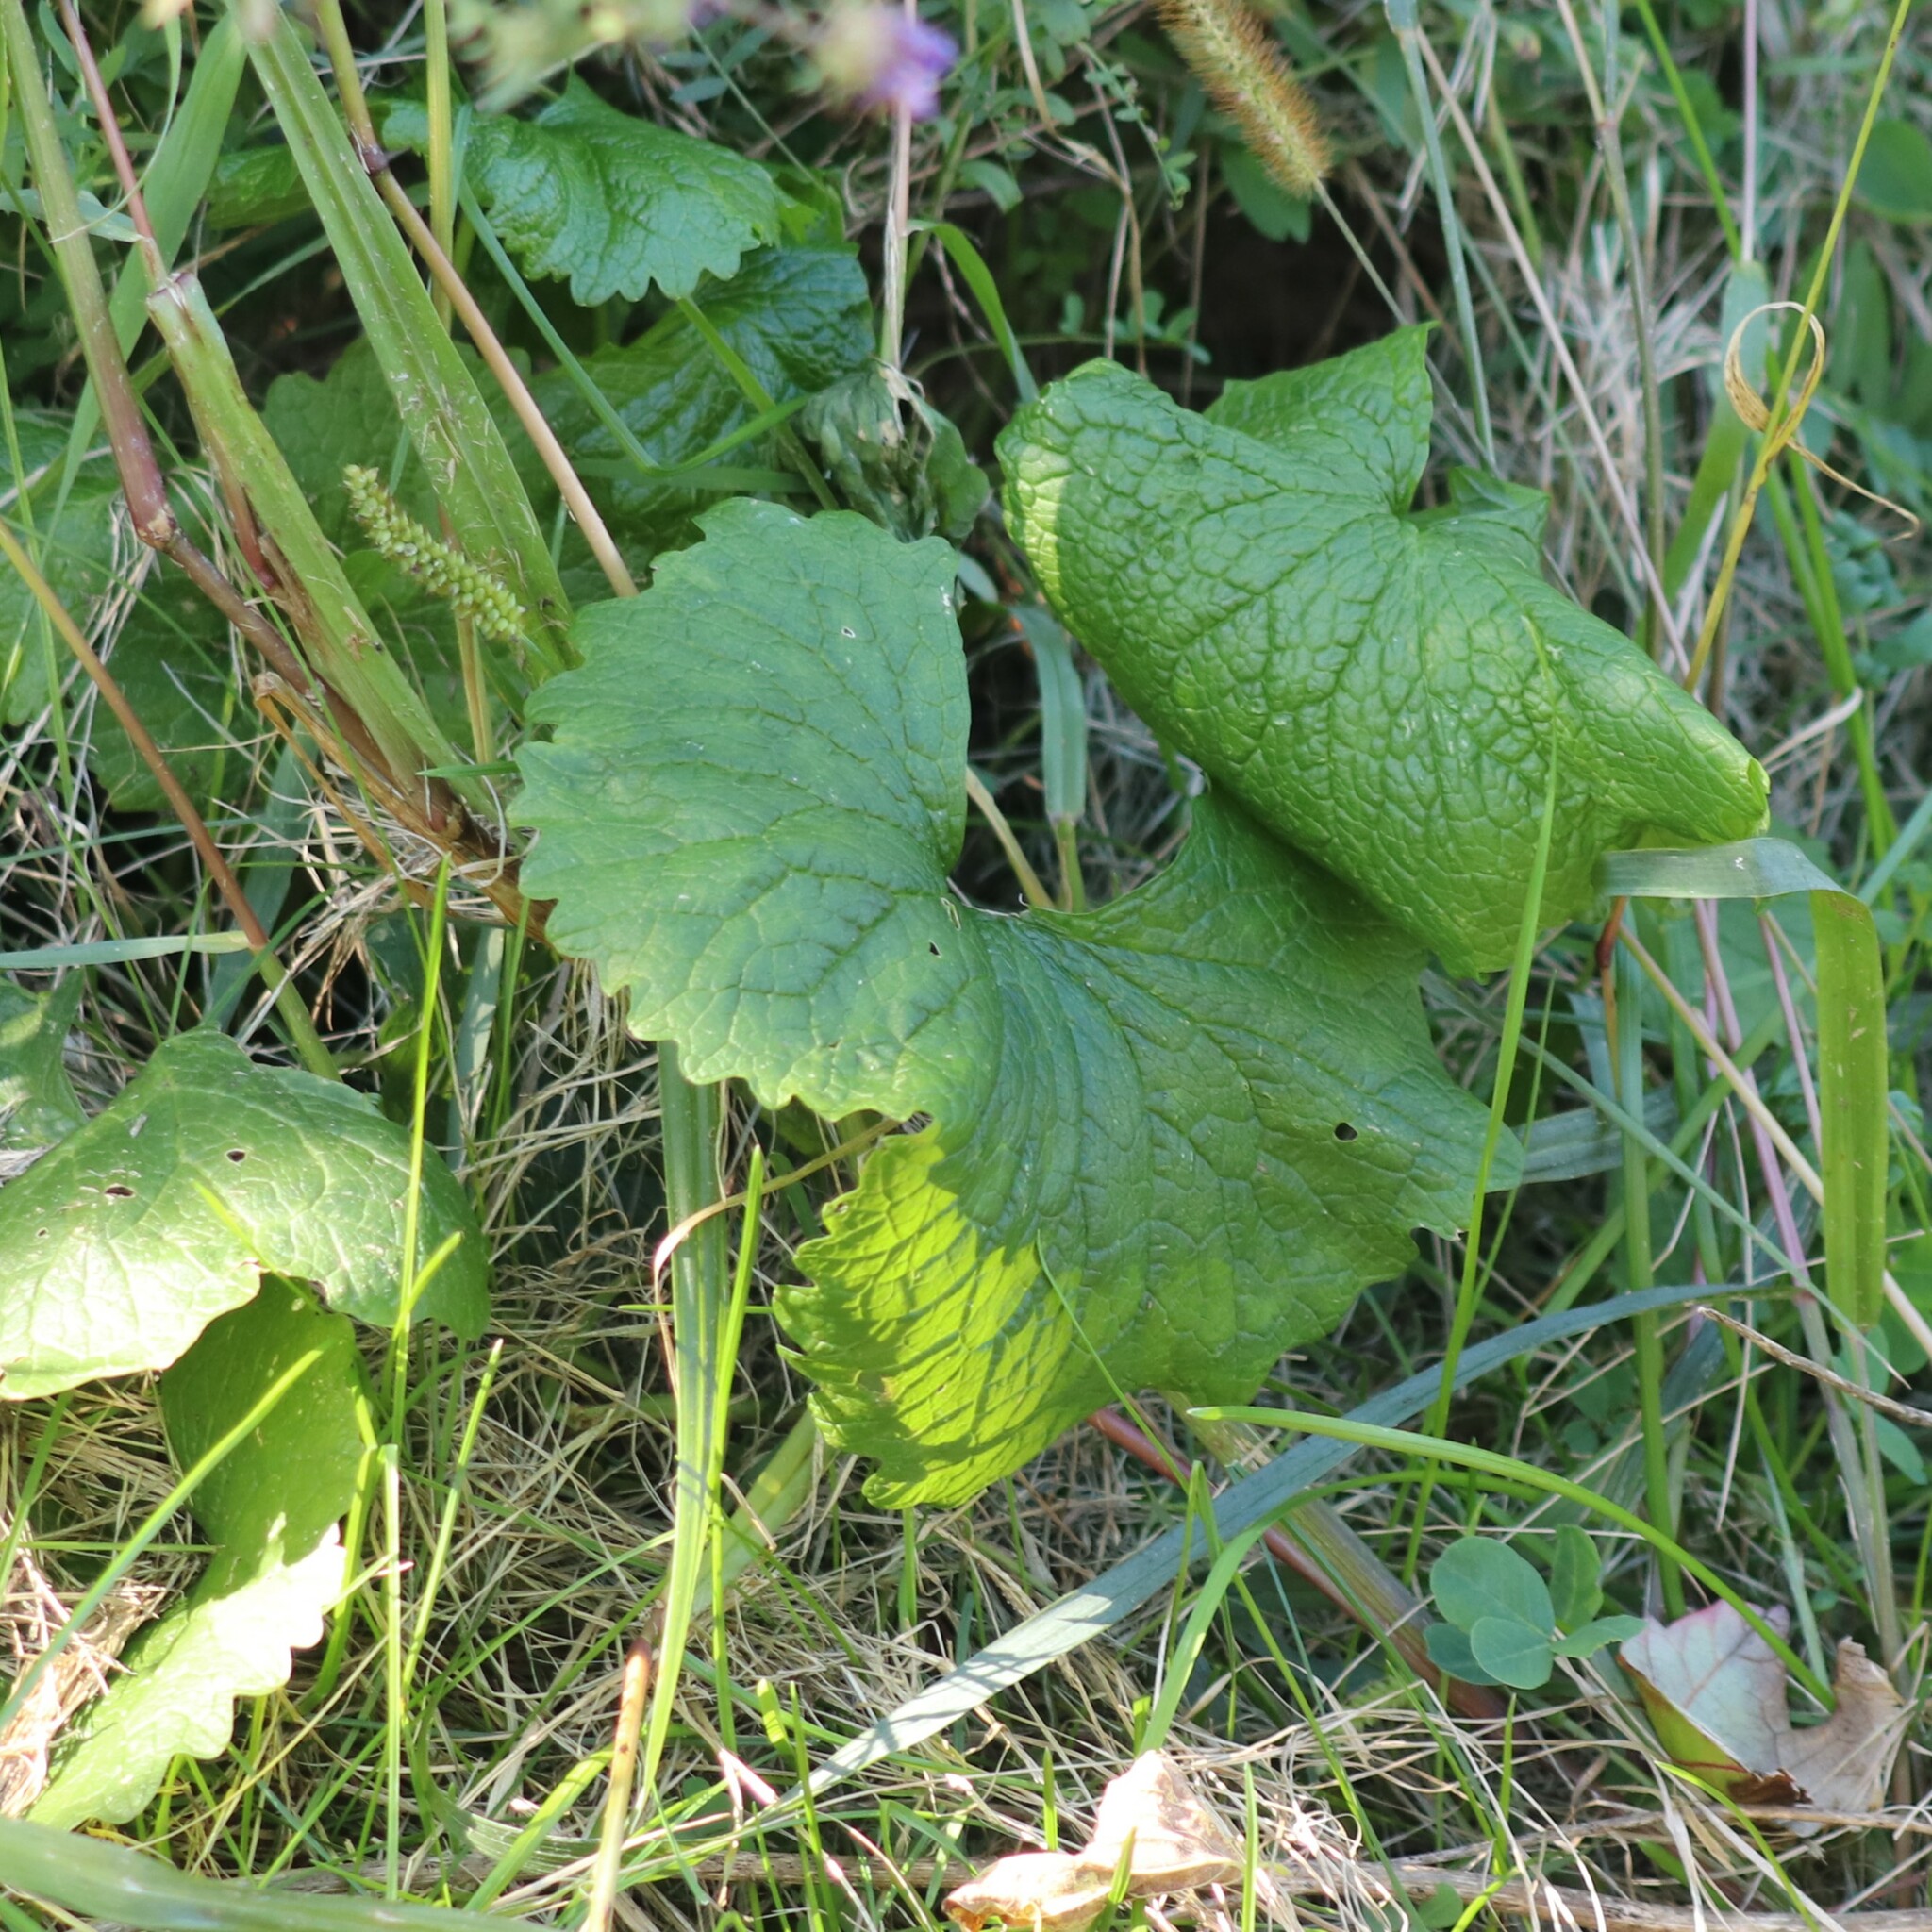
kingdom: Plantae
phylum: Tracheophyta
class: Magnoliopsida
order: Brassicales
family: Brassicaceae
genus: Alliaria
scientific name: Alliaria petiolata
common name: Garlic mustard
